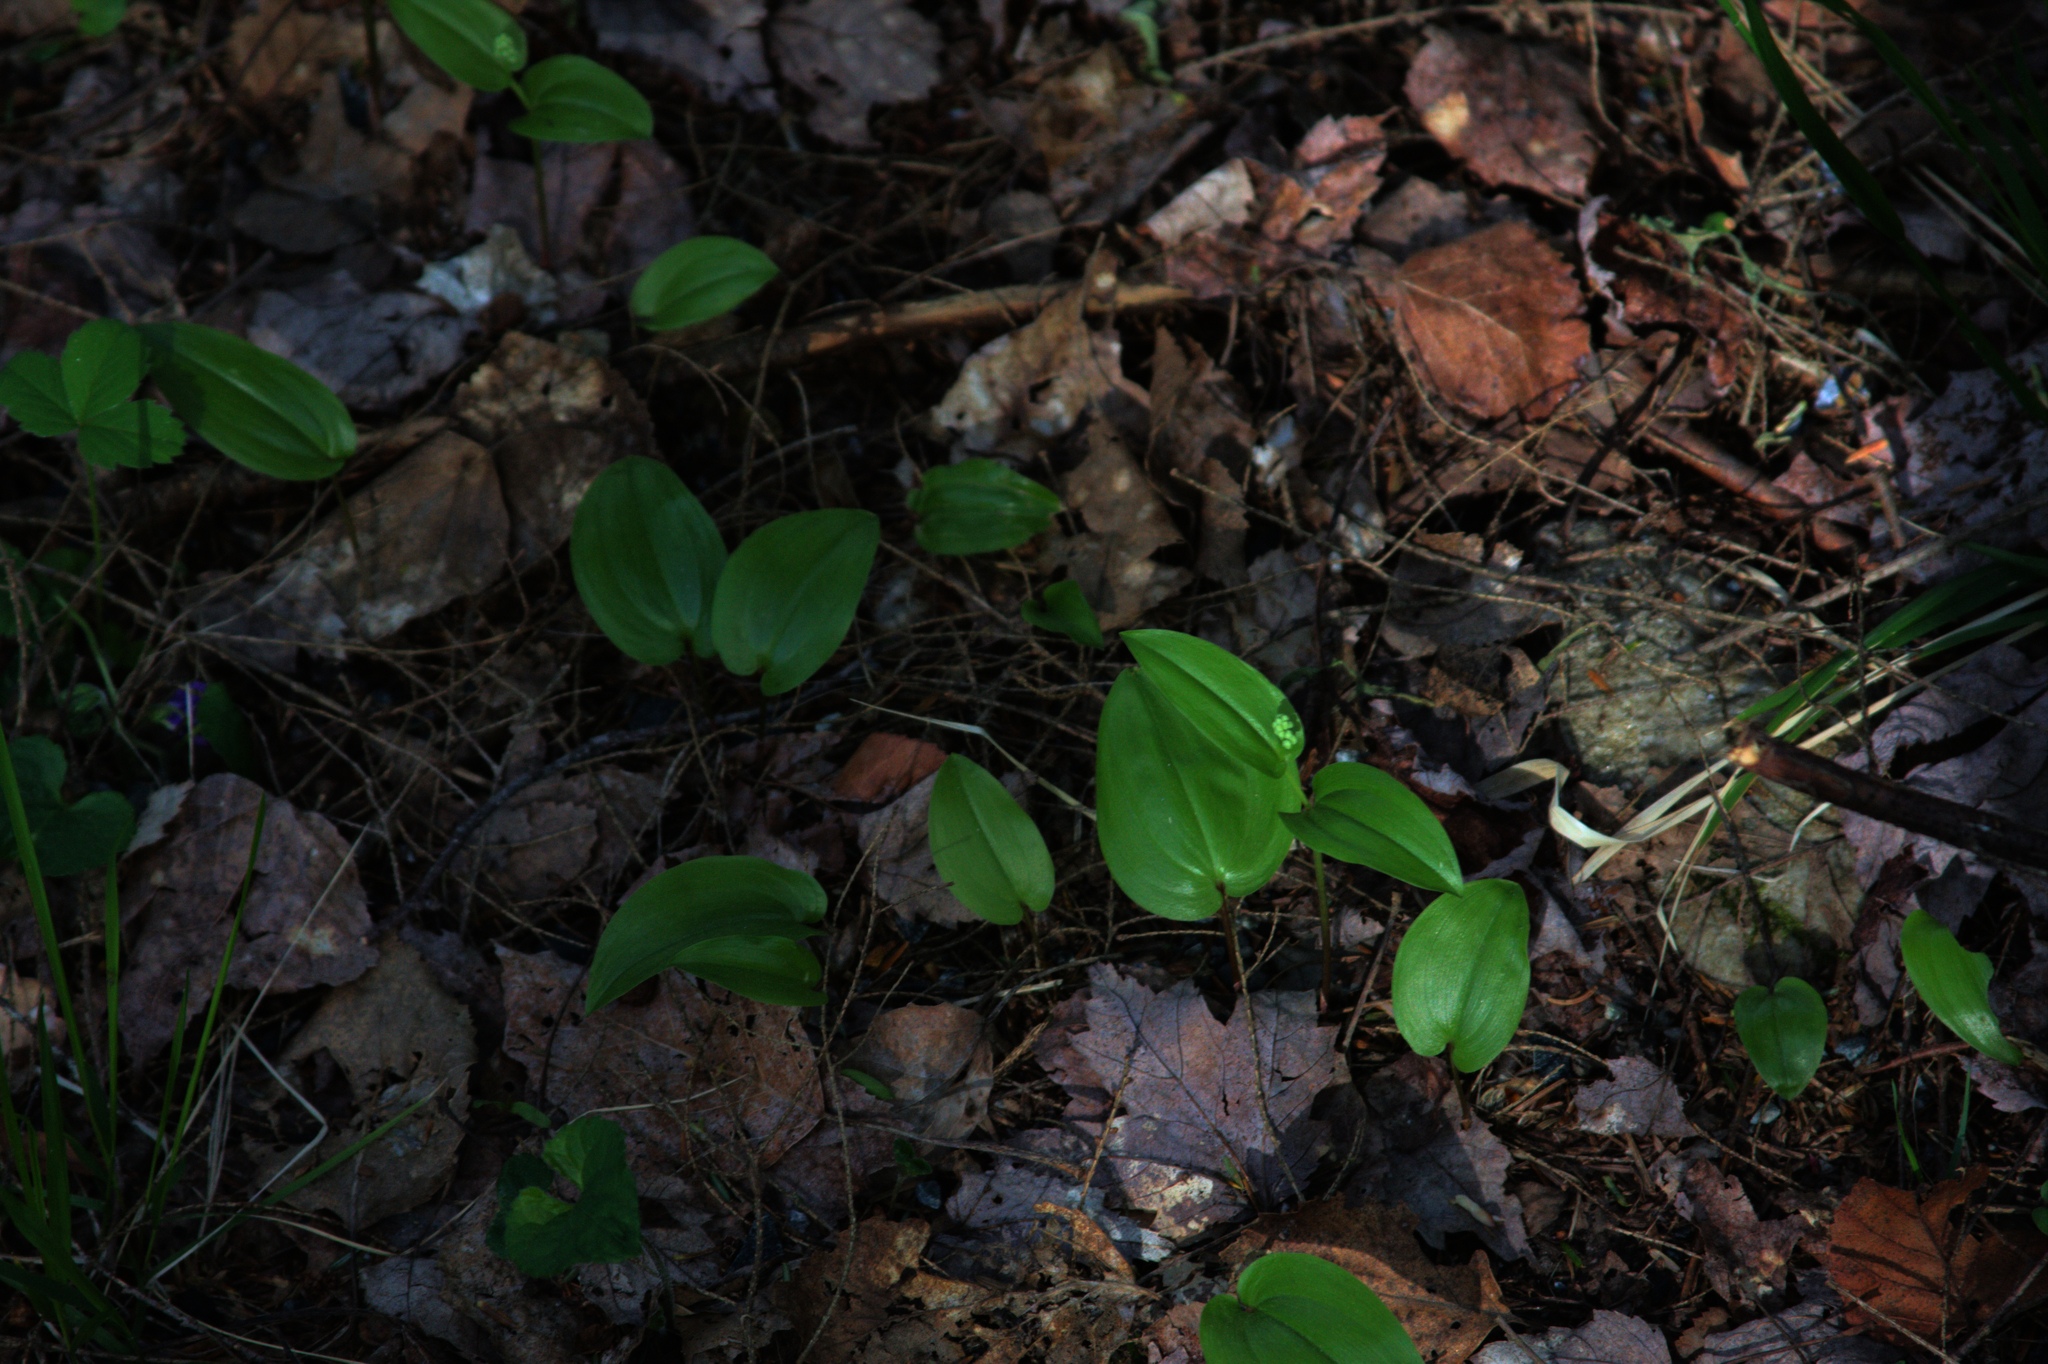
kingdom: Plantae
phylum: Tracheophyta
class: Liliopsida
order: Asparagales
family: Asparagaceae
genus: Maianthemum
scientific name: Maianthemum canadense
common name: False lily-of-the-valley
